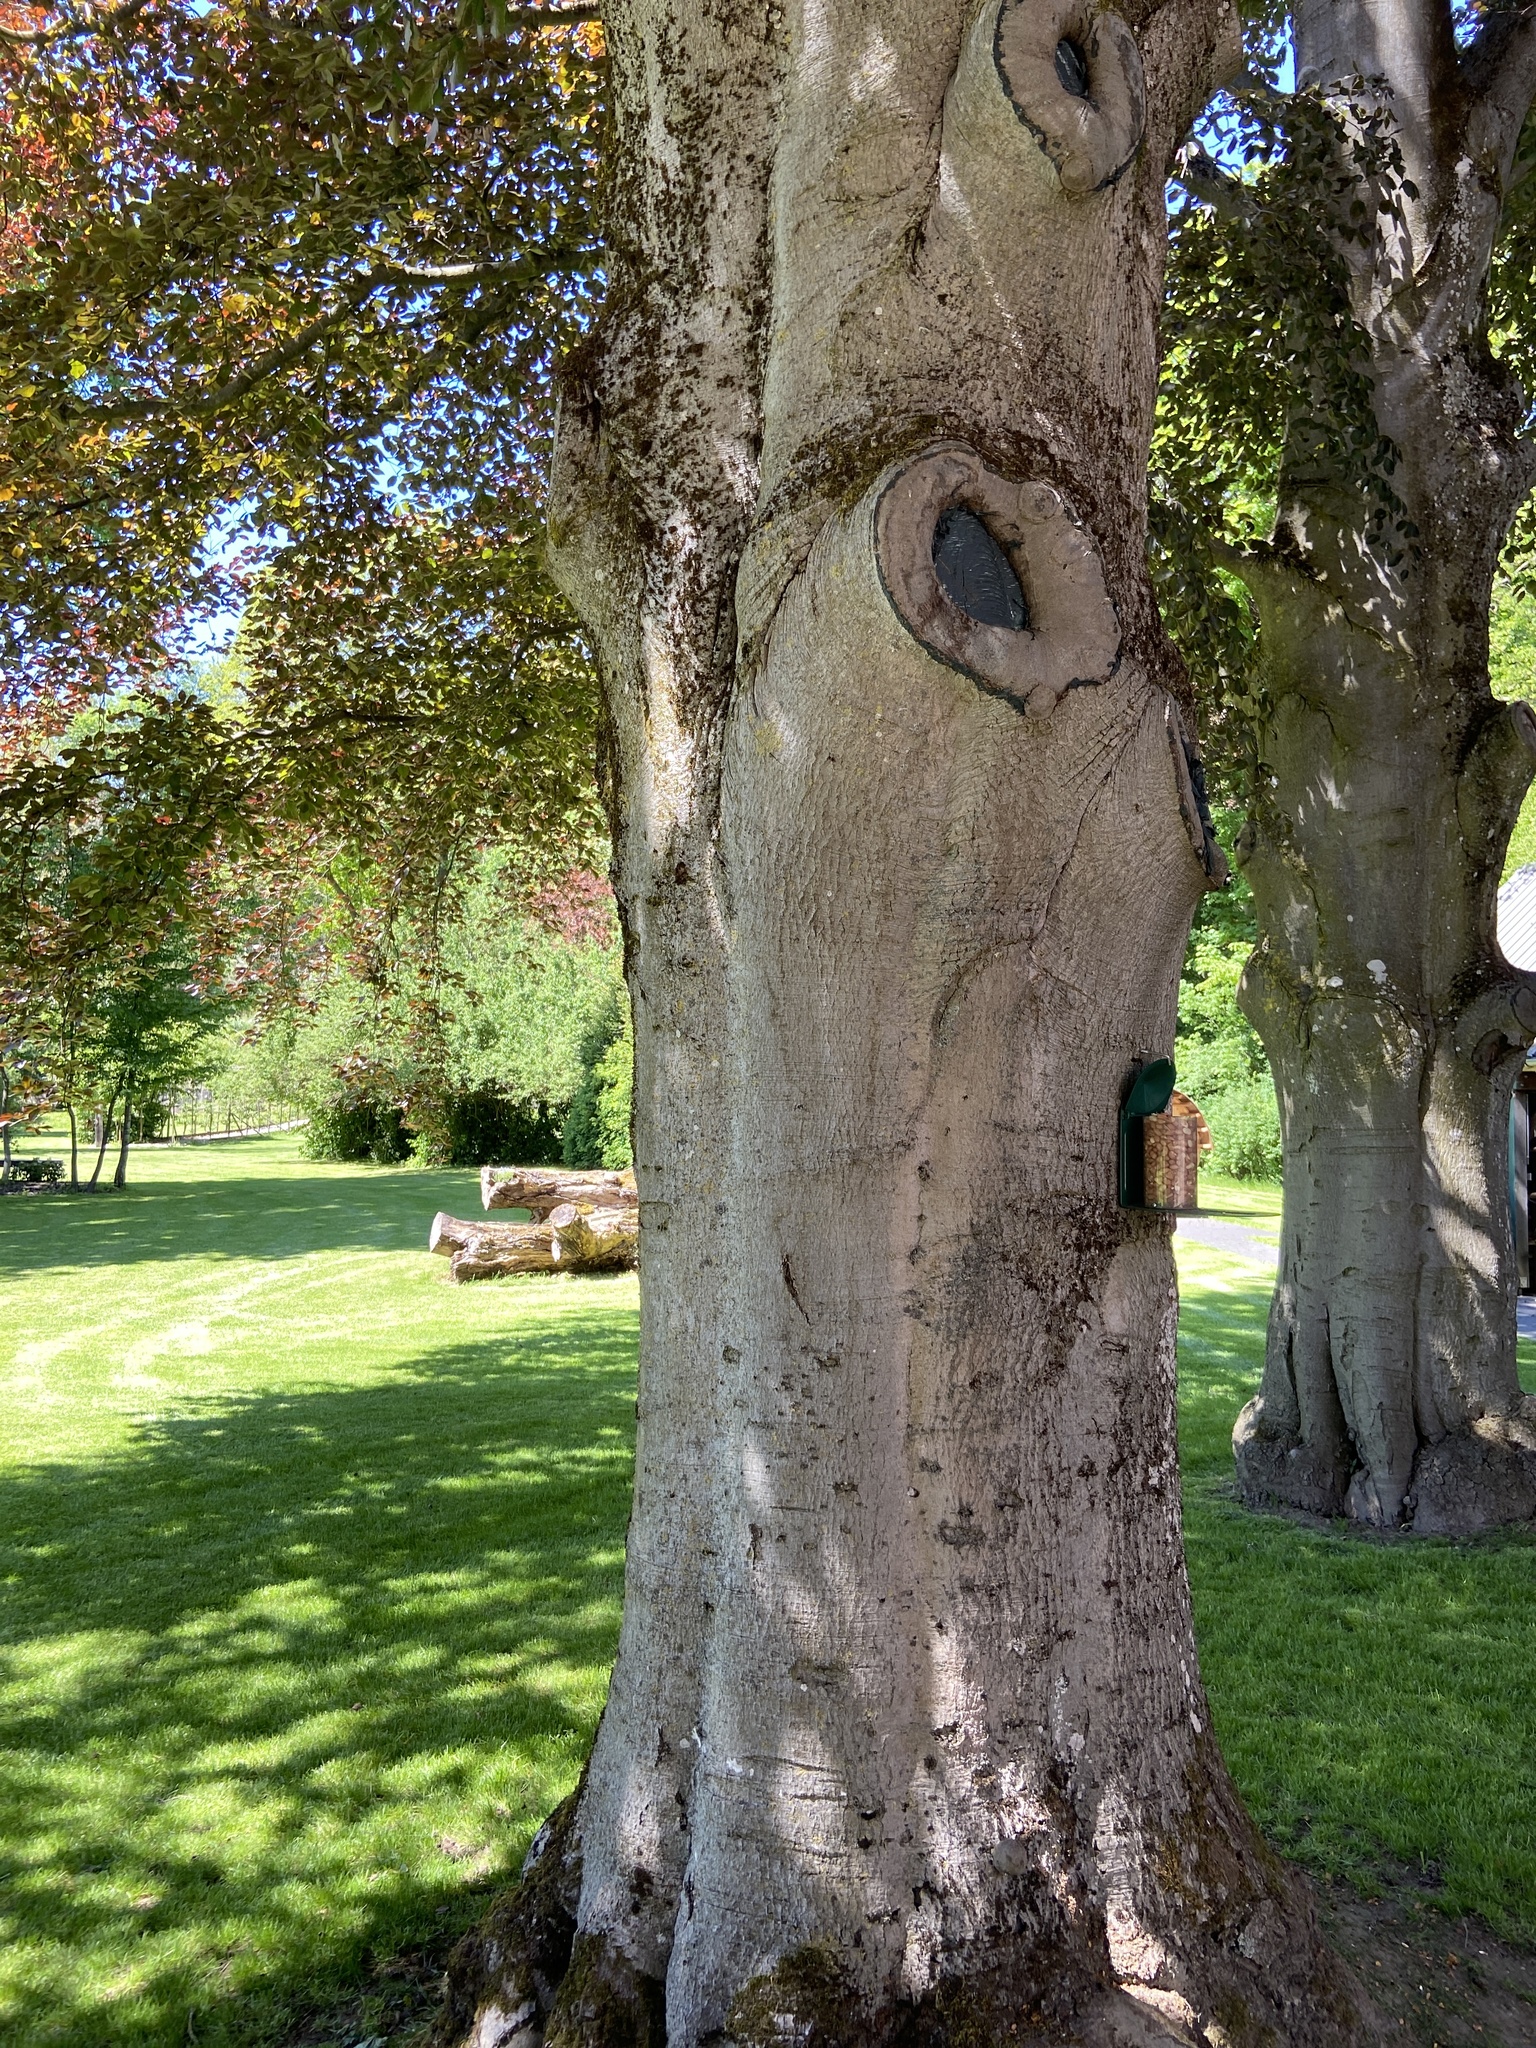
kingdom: Plantae
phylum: Tracheophyta
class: Magnoliopsida
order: Fagales
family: Fagaceae
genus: Fagus
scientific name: Fagus sylvatica
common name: Beech
